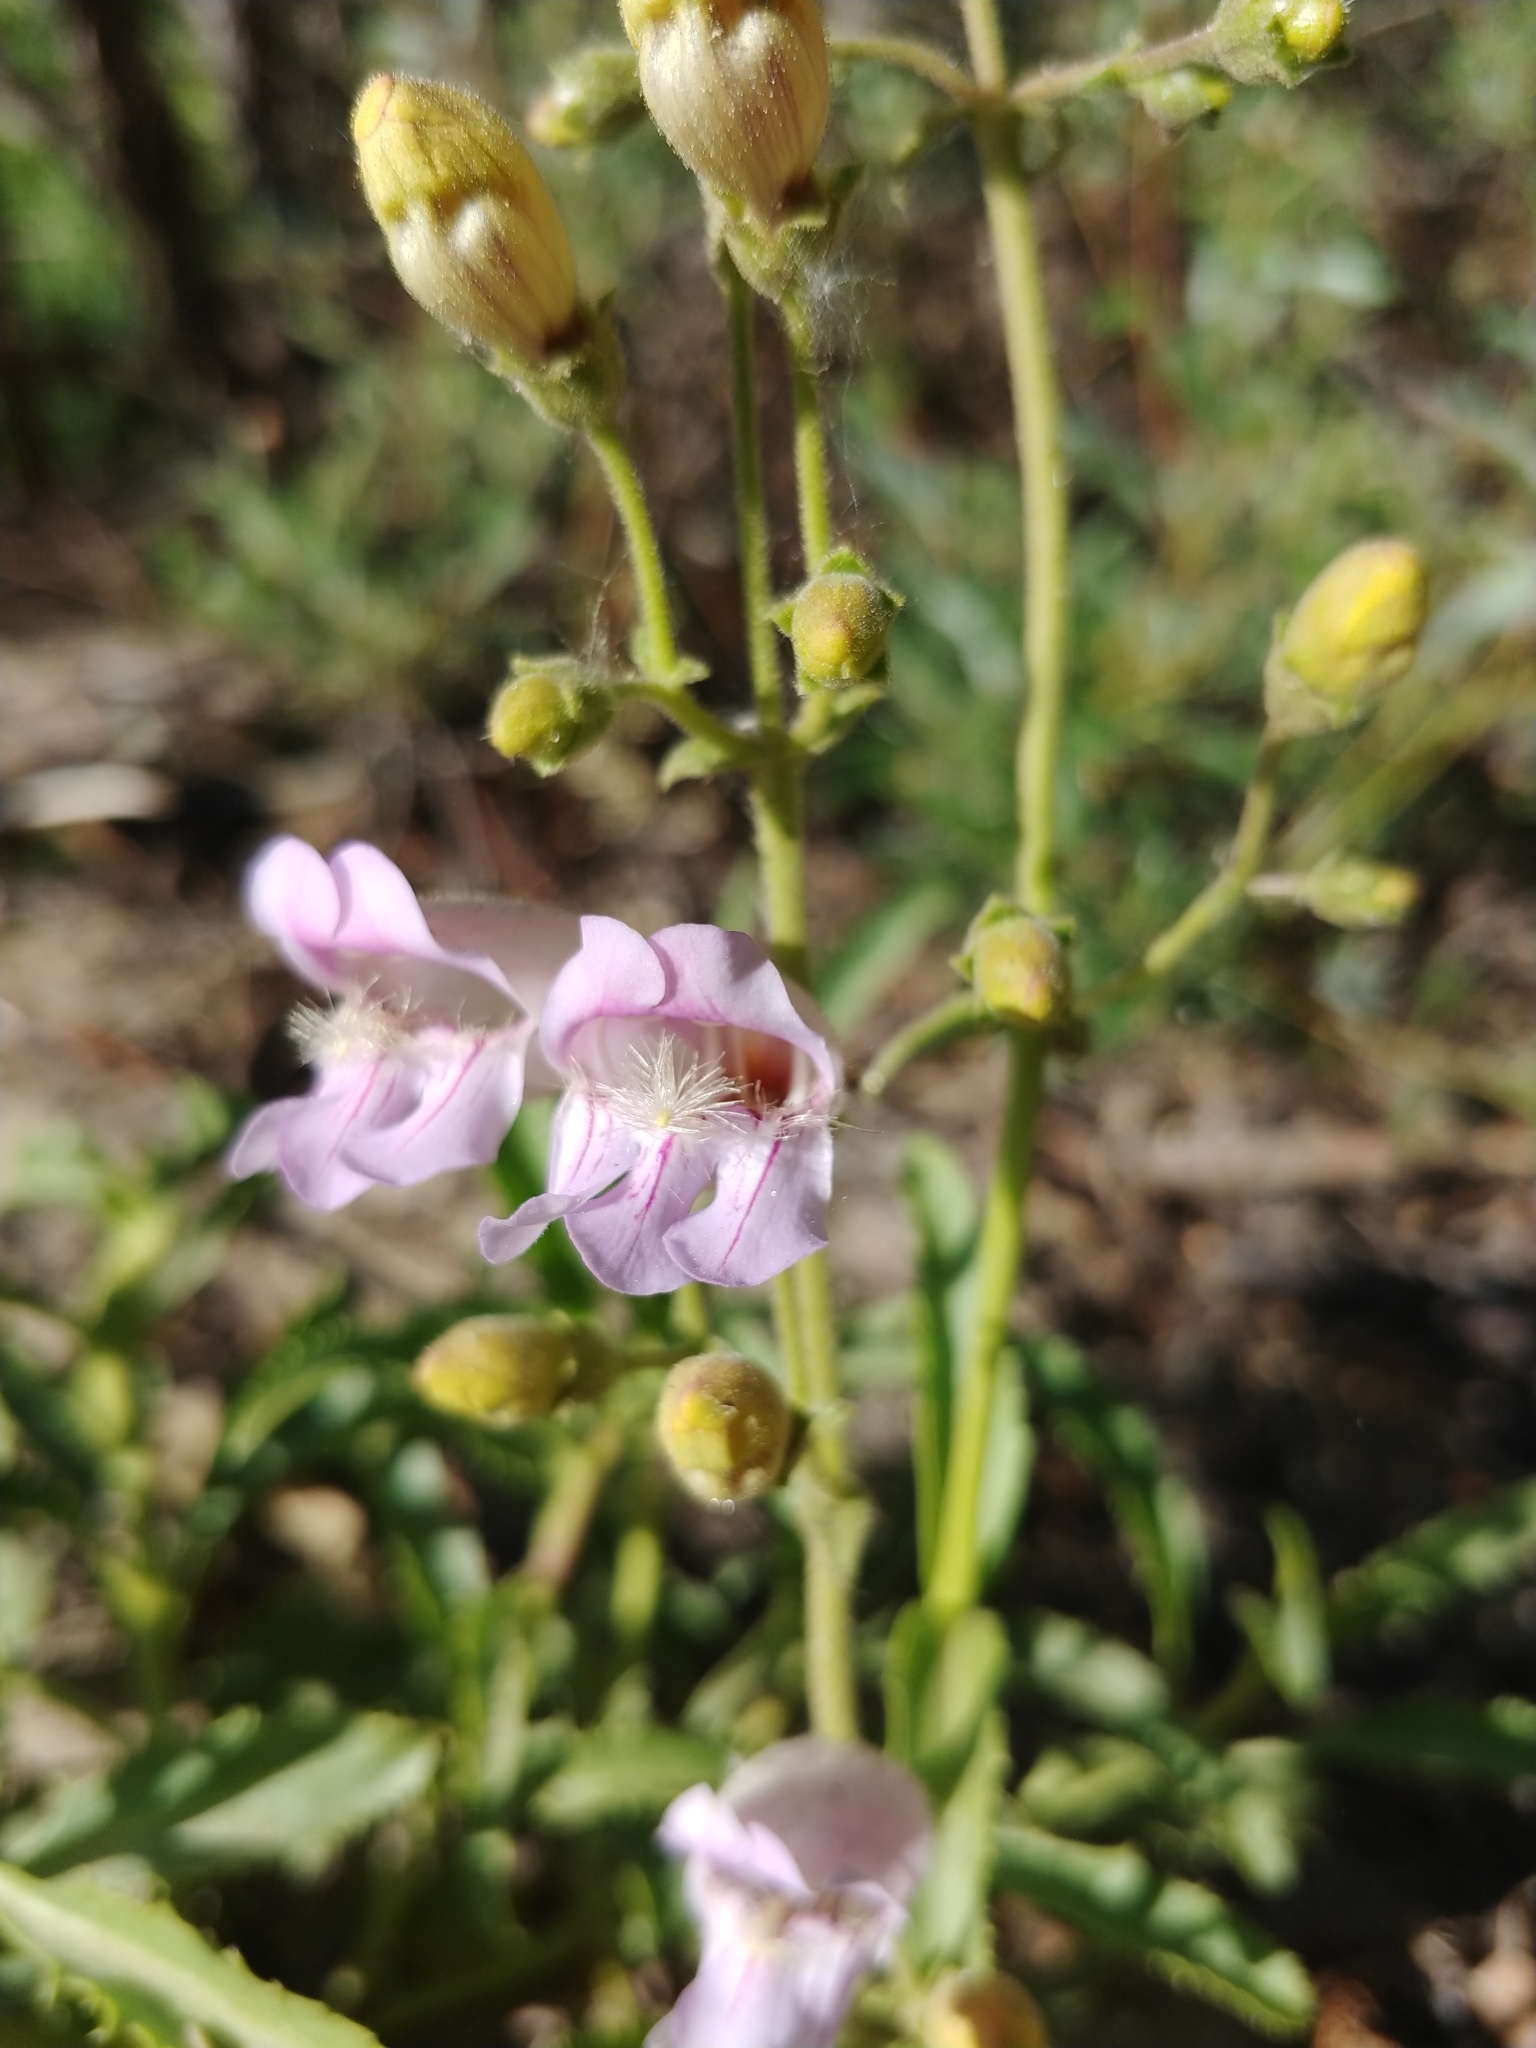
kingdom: Plantae
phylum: Tracheophyta
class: Magnoliopsida
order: Lamiales
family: Plantaginaceae
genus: Penstemon
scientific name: Penstemon grinnellii
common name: Grinnell's beardtongue
